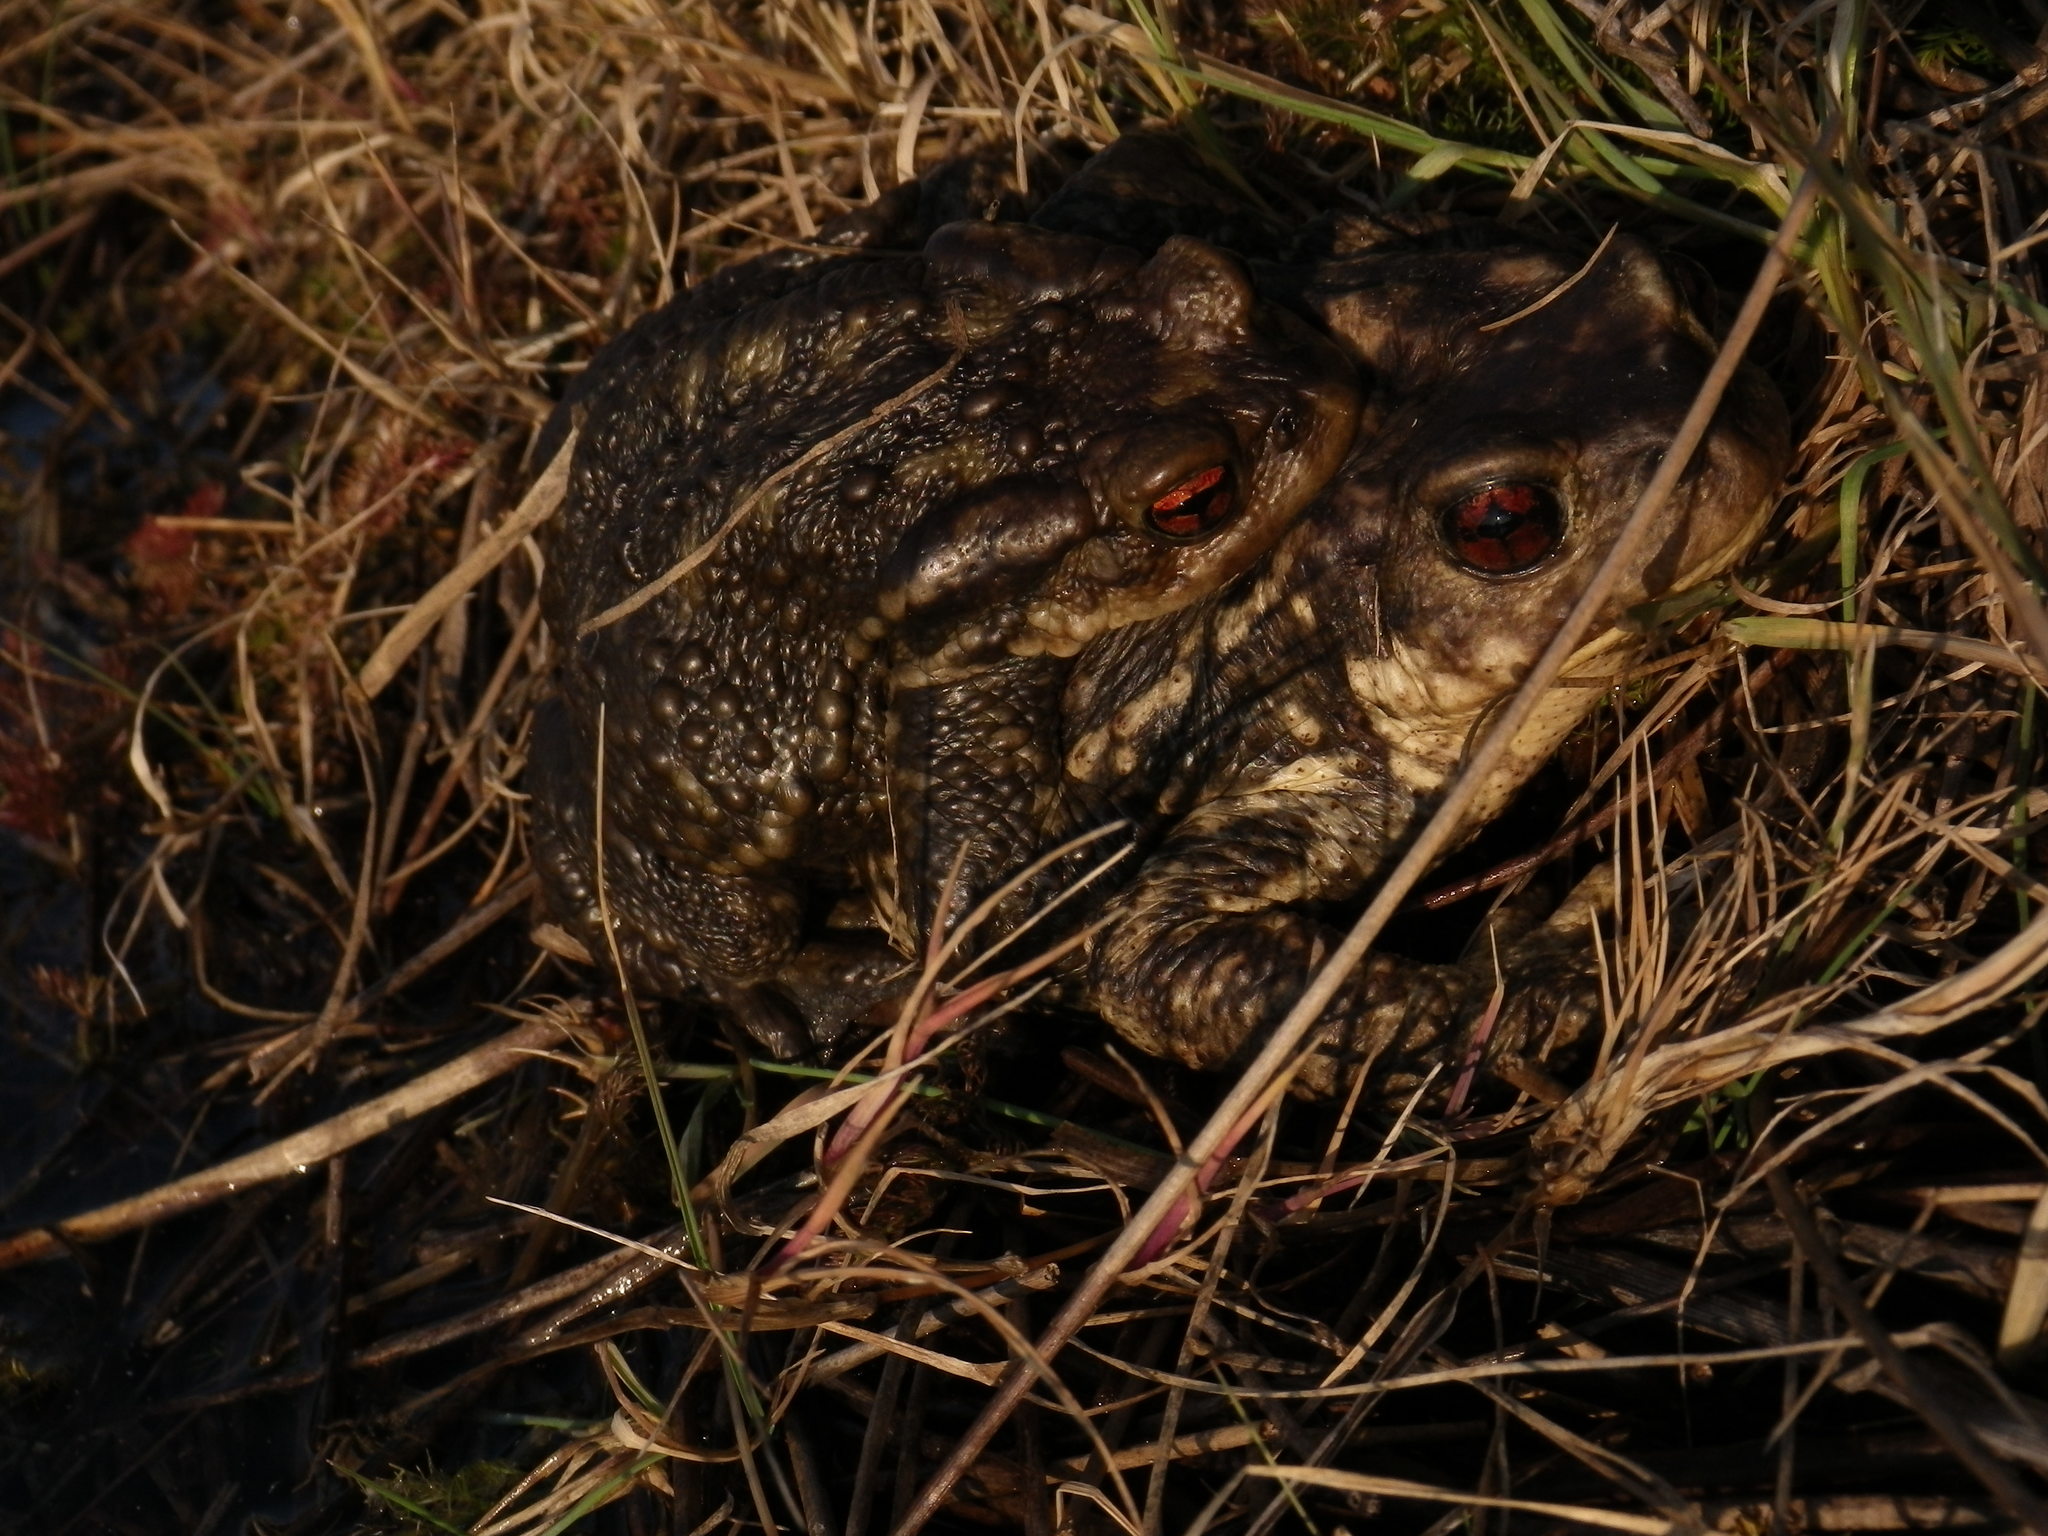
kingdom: Animalia
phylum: Chordata
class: Amphibia
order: Anura
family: Bufonidae
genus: Bufo
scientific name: Bufo spinosus
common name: Western common toad
